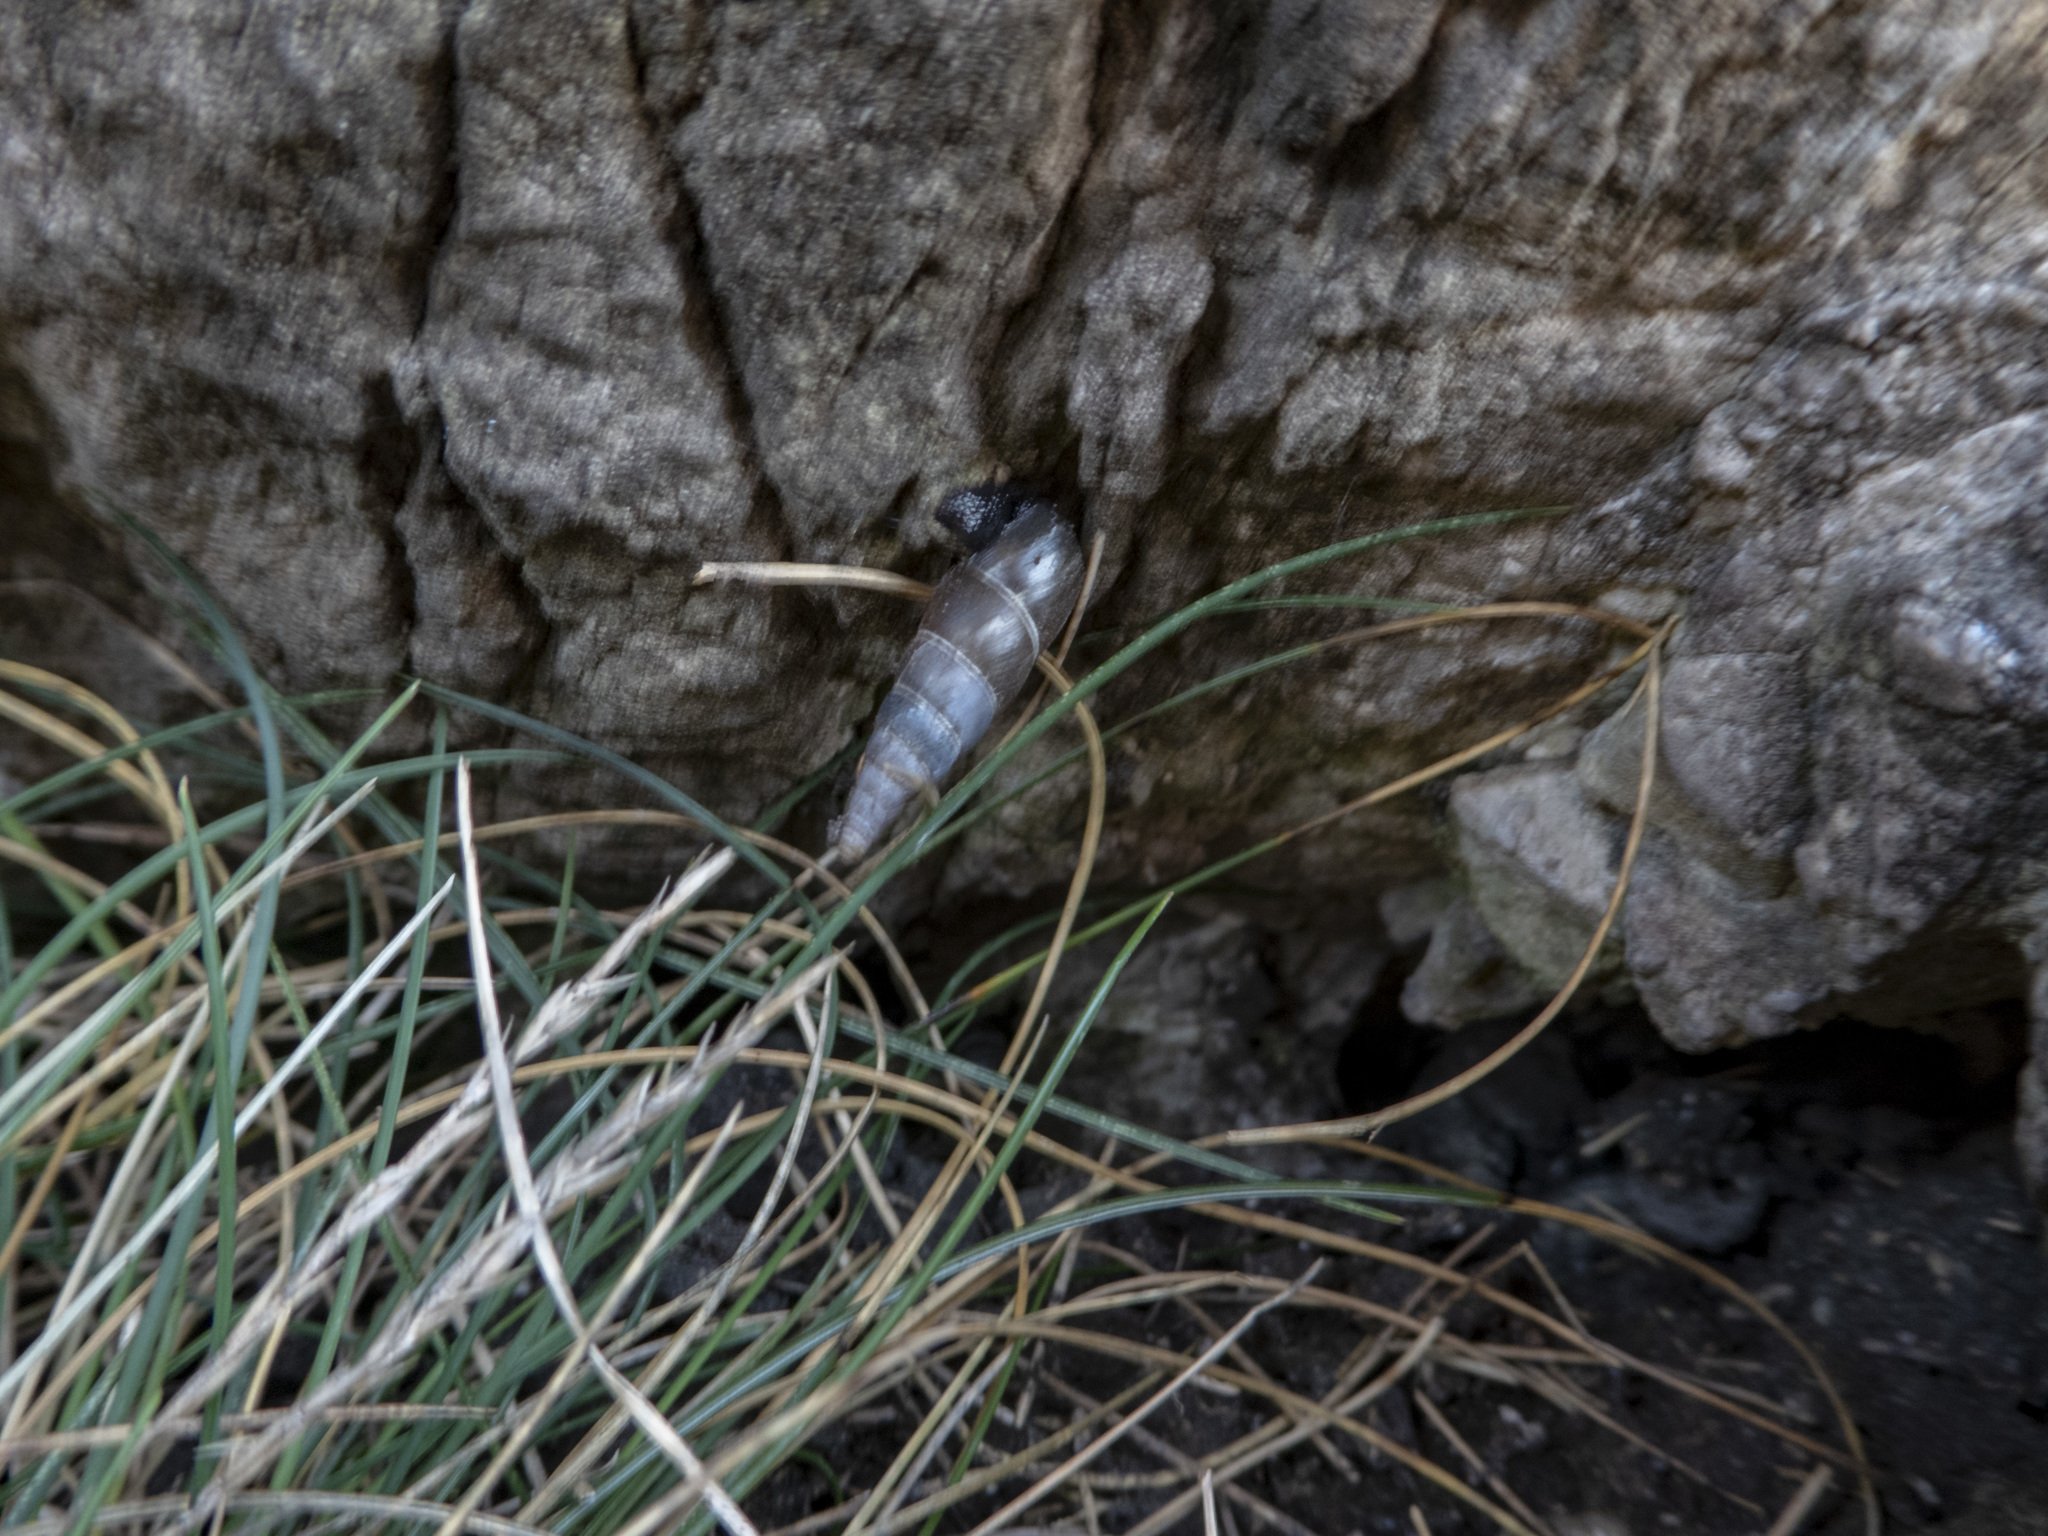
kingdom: Animalia
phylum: Mollusca
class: Gastropoda
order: Stylommatophora
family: Clausiliidae
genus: Herilla
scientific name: Herilla bosniensis
